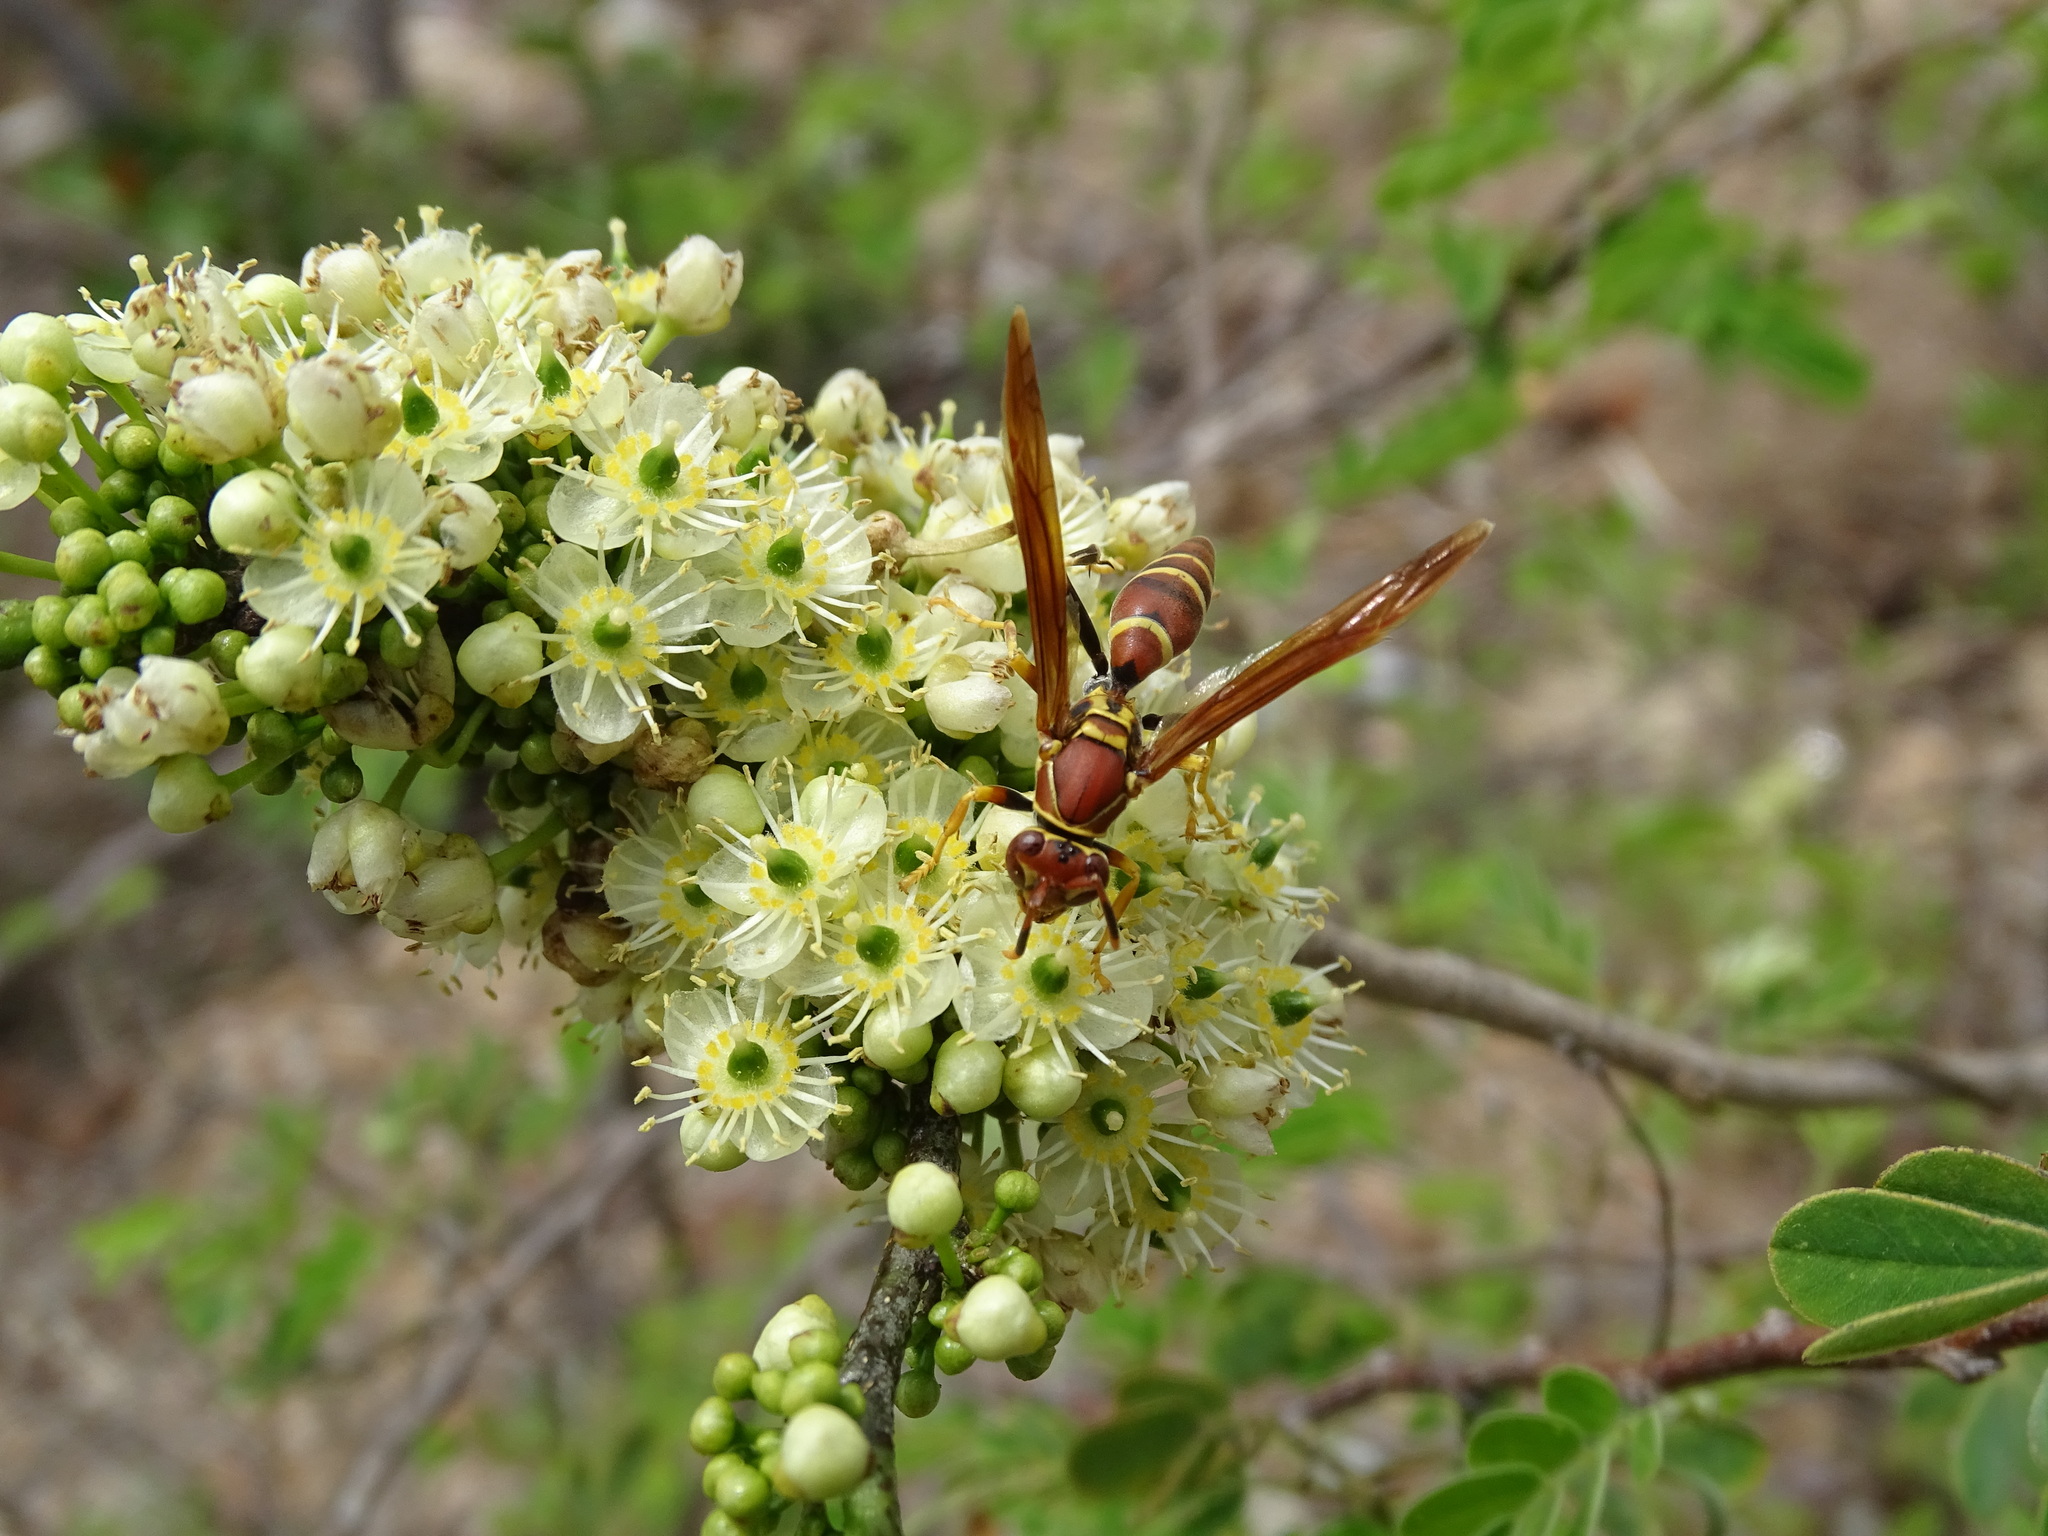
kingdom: Animalia
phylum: Arthropoda
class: Insecta
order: Hymenoptera
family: Eumenidae
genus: Polistes
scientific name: Polistes instabilis
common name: Unstable paper wasp
